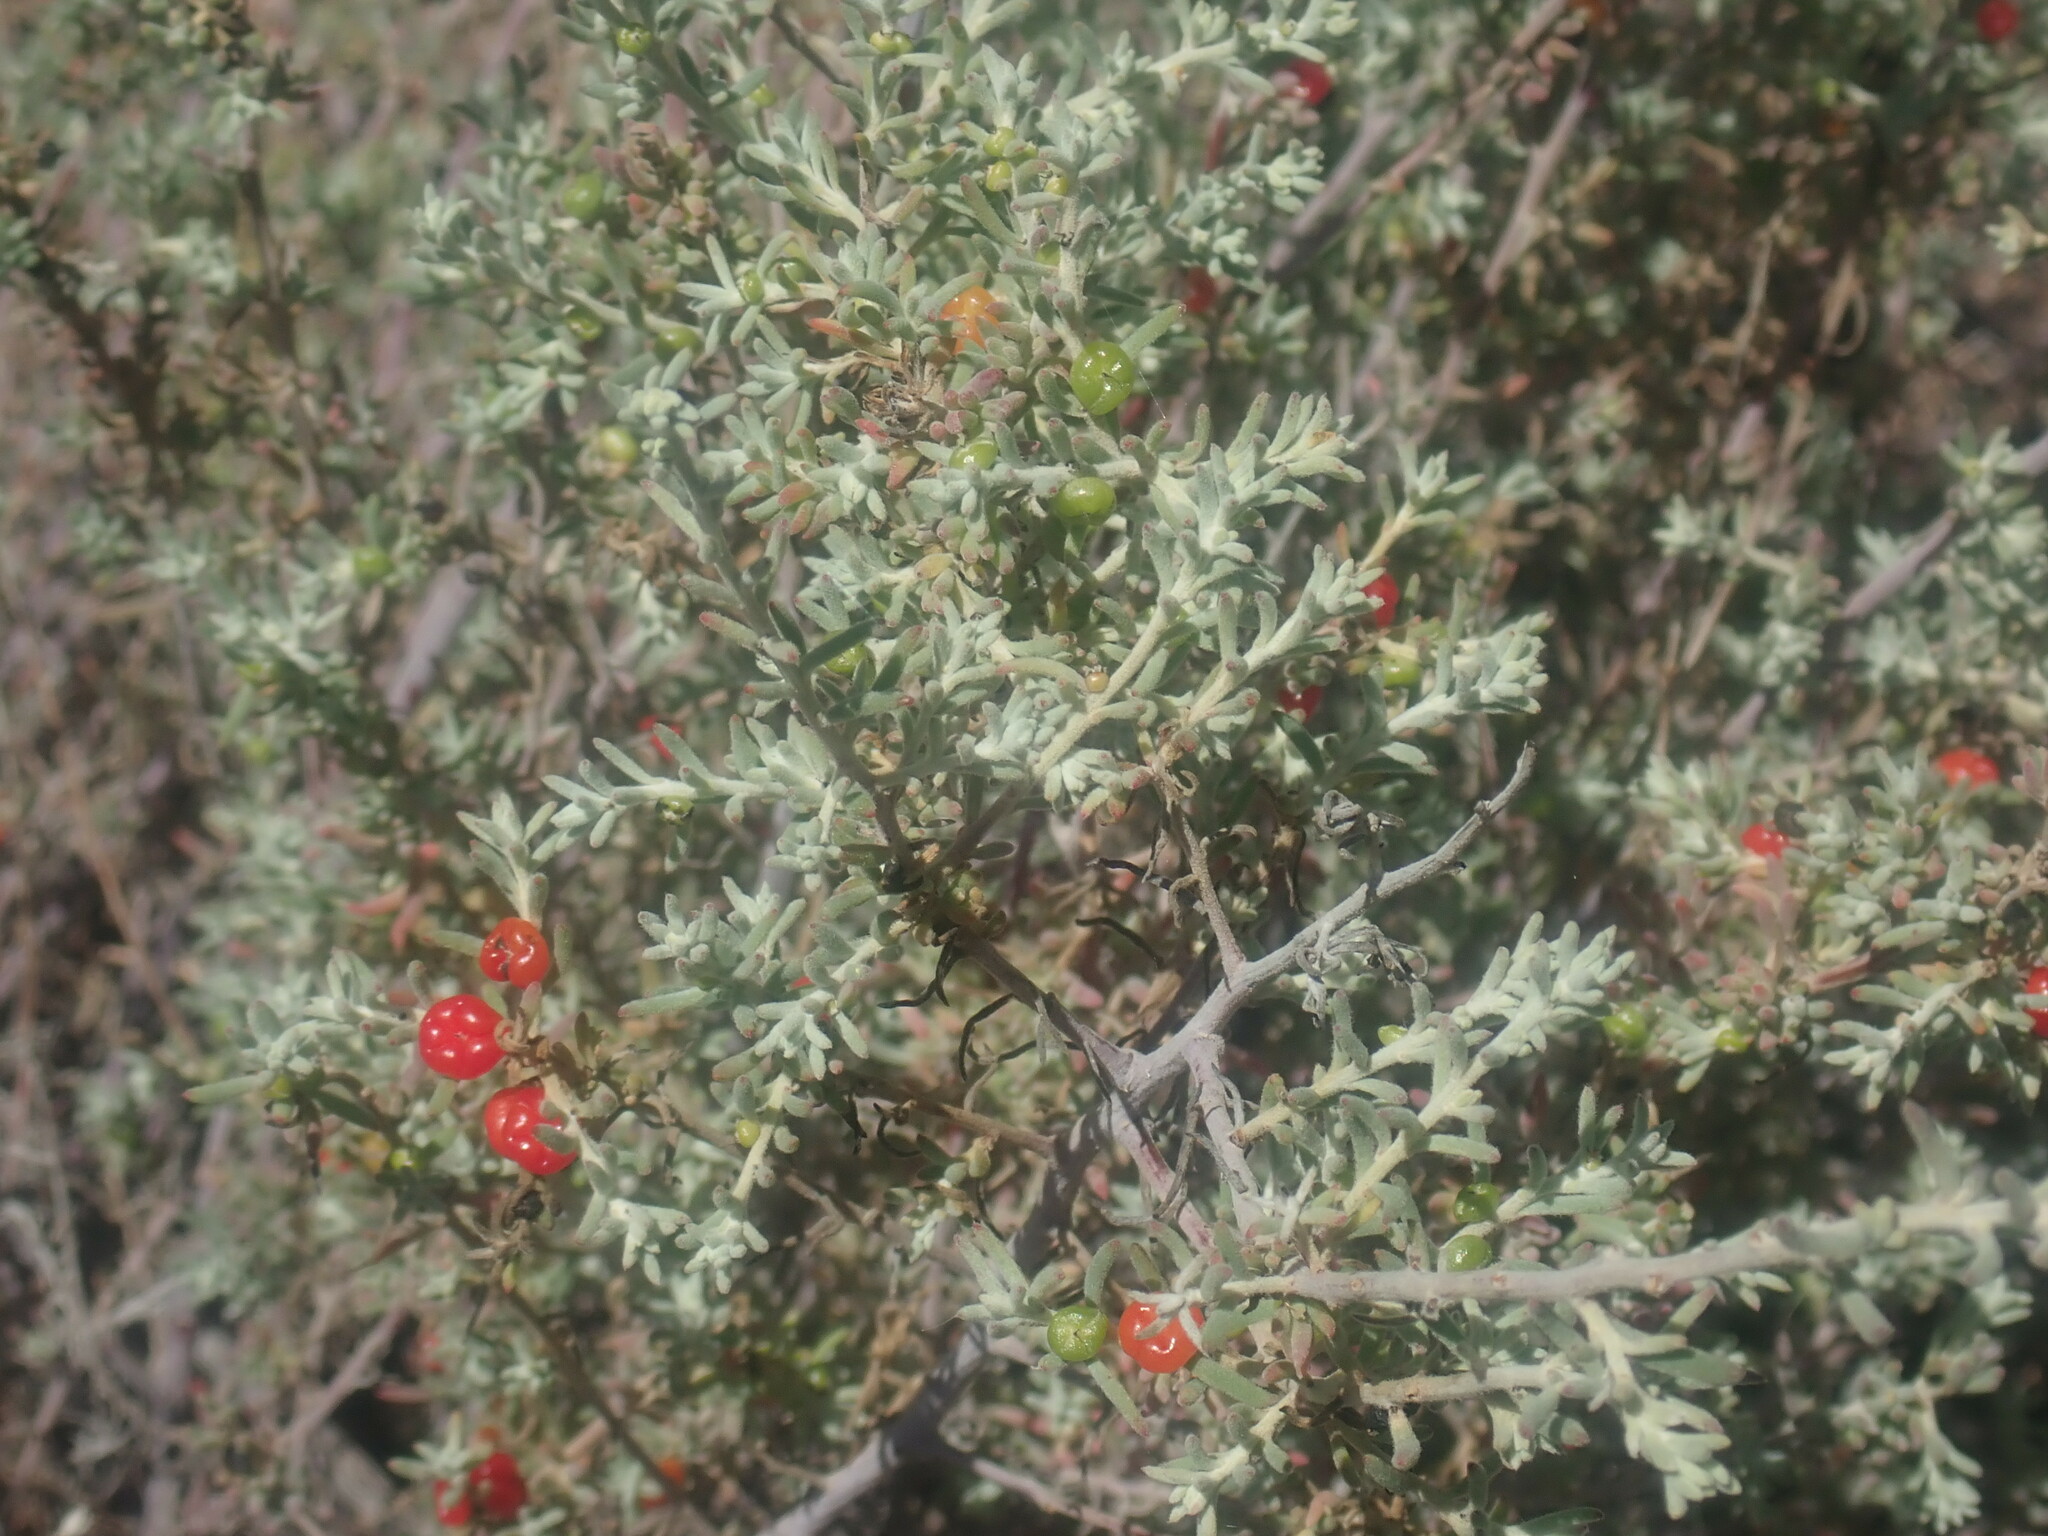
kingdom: Plantae
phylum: Tracheophyta
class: Magnoliopsida
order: Caryophyllales
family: Amaranthaceae
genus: Enchylaena
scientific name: Enchylaena tomentosa
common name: Ruby saltbush
